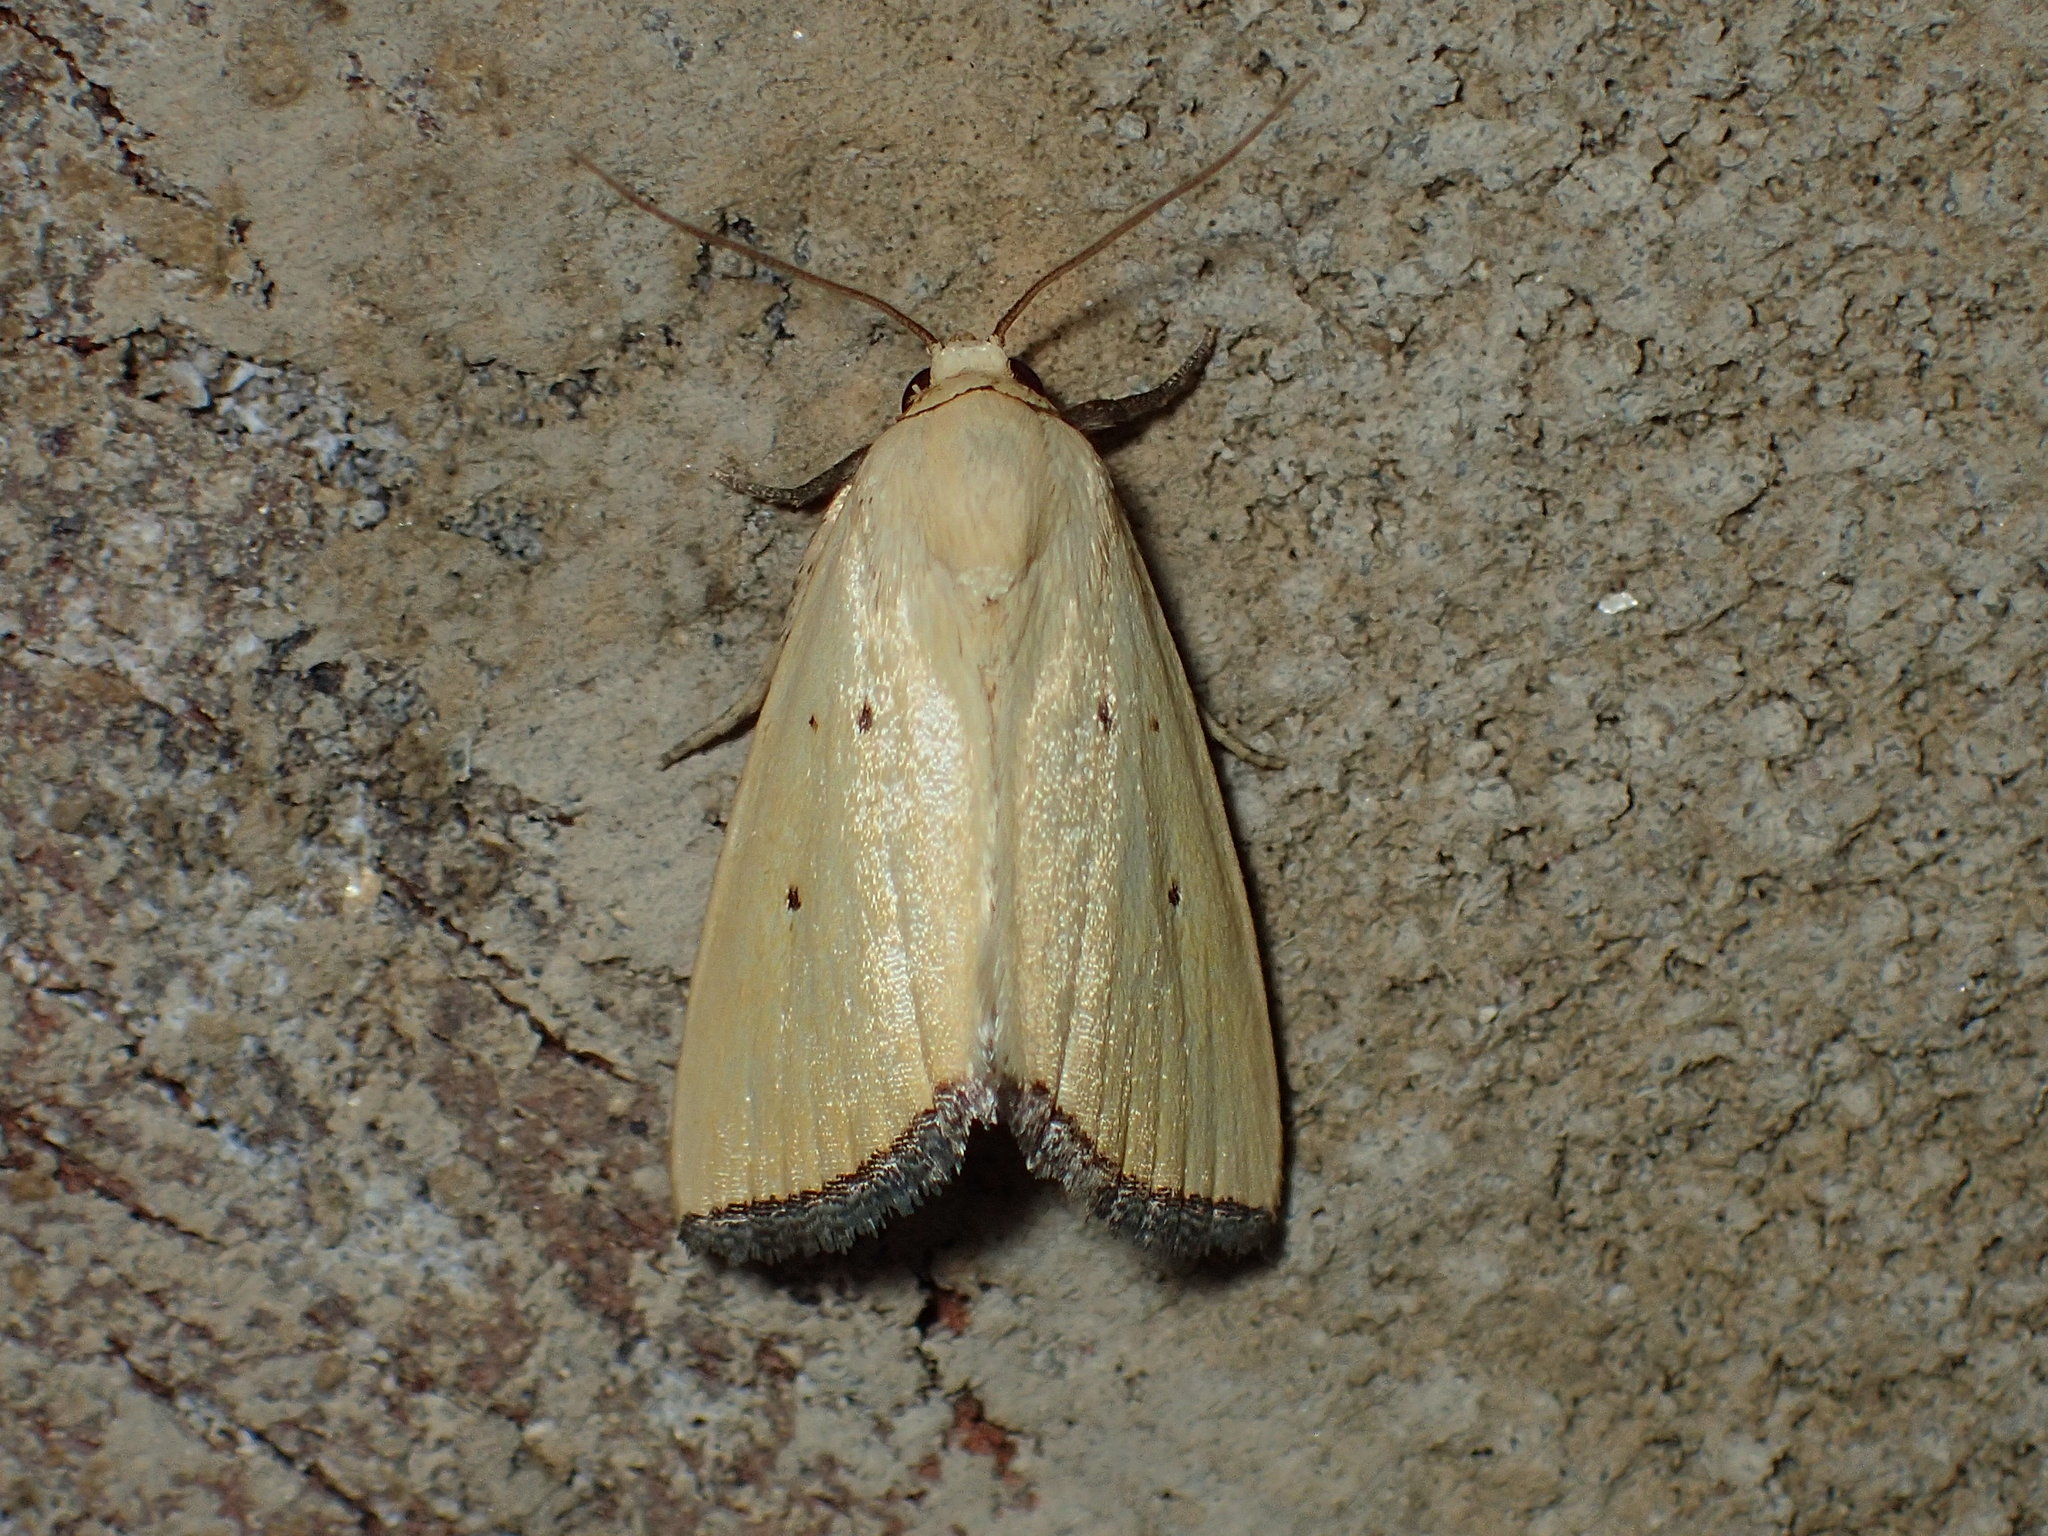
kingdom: Animalia
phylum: Arthropoda
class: Insecta
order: Lepidoptera
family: Noctuidae
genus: Marimatha
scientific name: Marimatha nigrofimbria
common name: Black-bordered lemon moth
